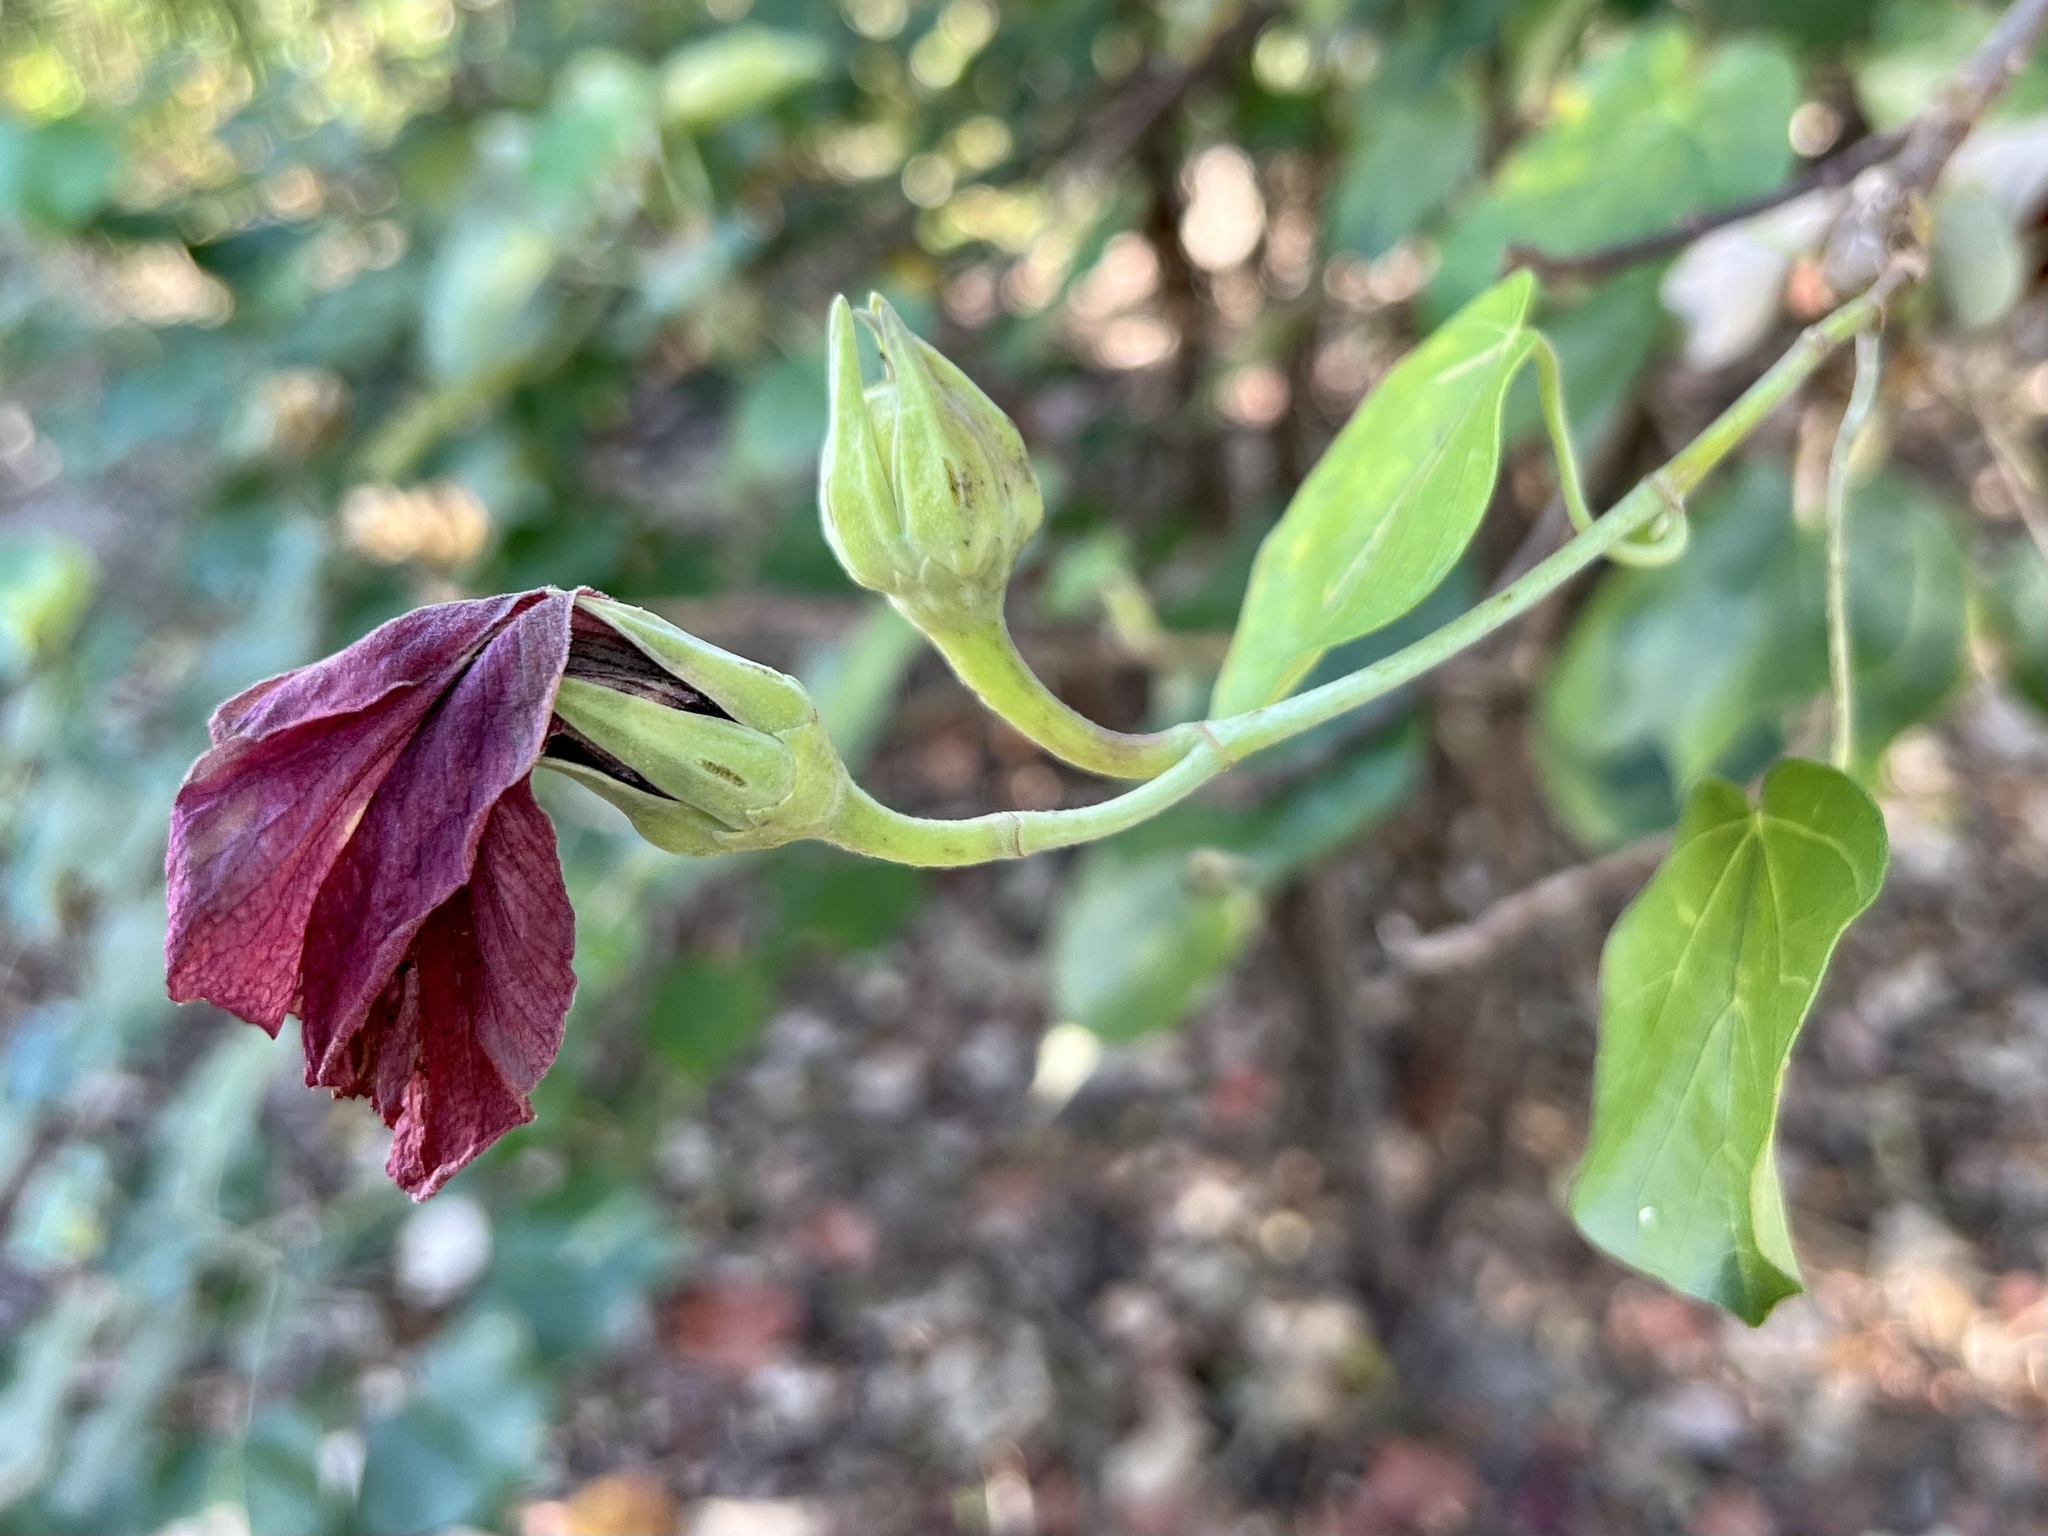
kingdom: Plantae
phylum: Tracheophyta
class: Magnoliopsida
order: Malvales
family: Malvaceae
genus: Talipariti
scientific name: Talipariti tiliaceum
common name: Sea hibiscus
